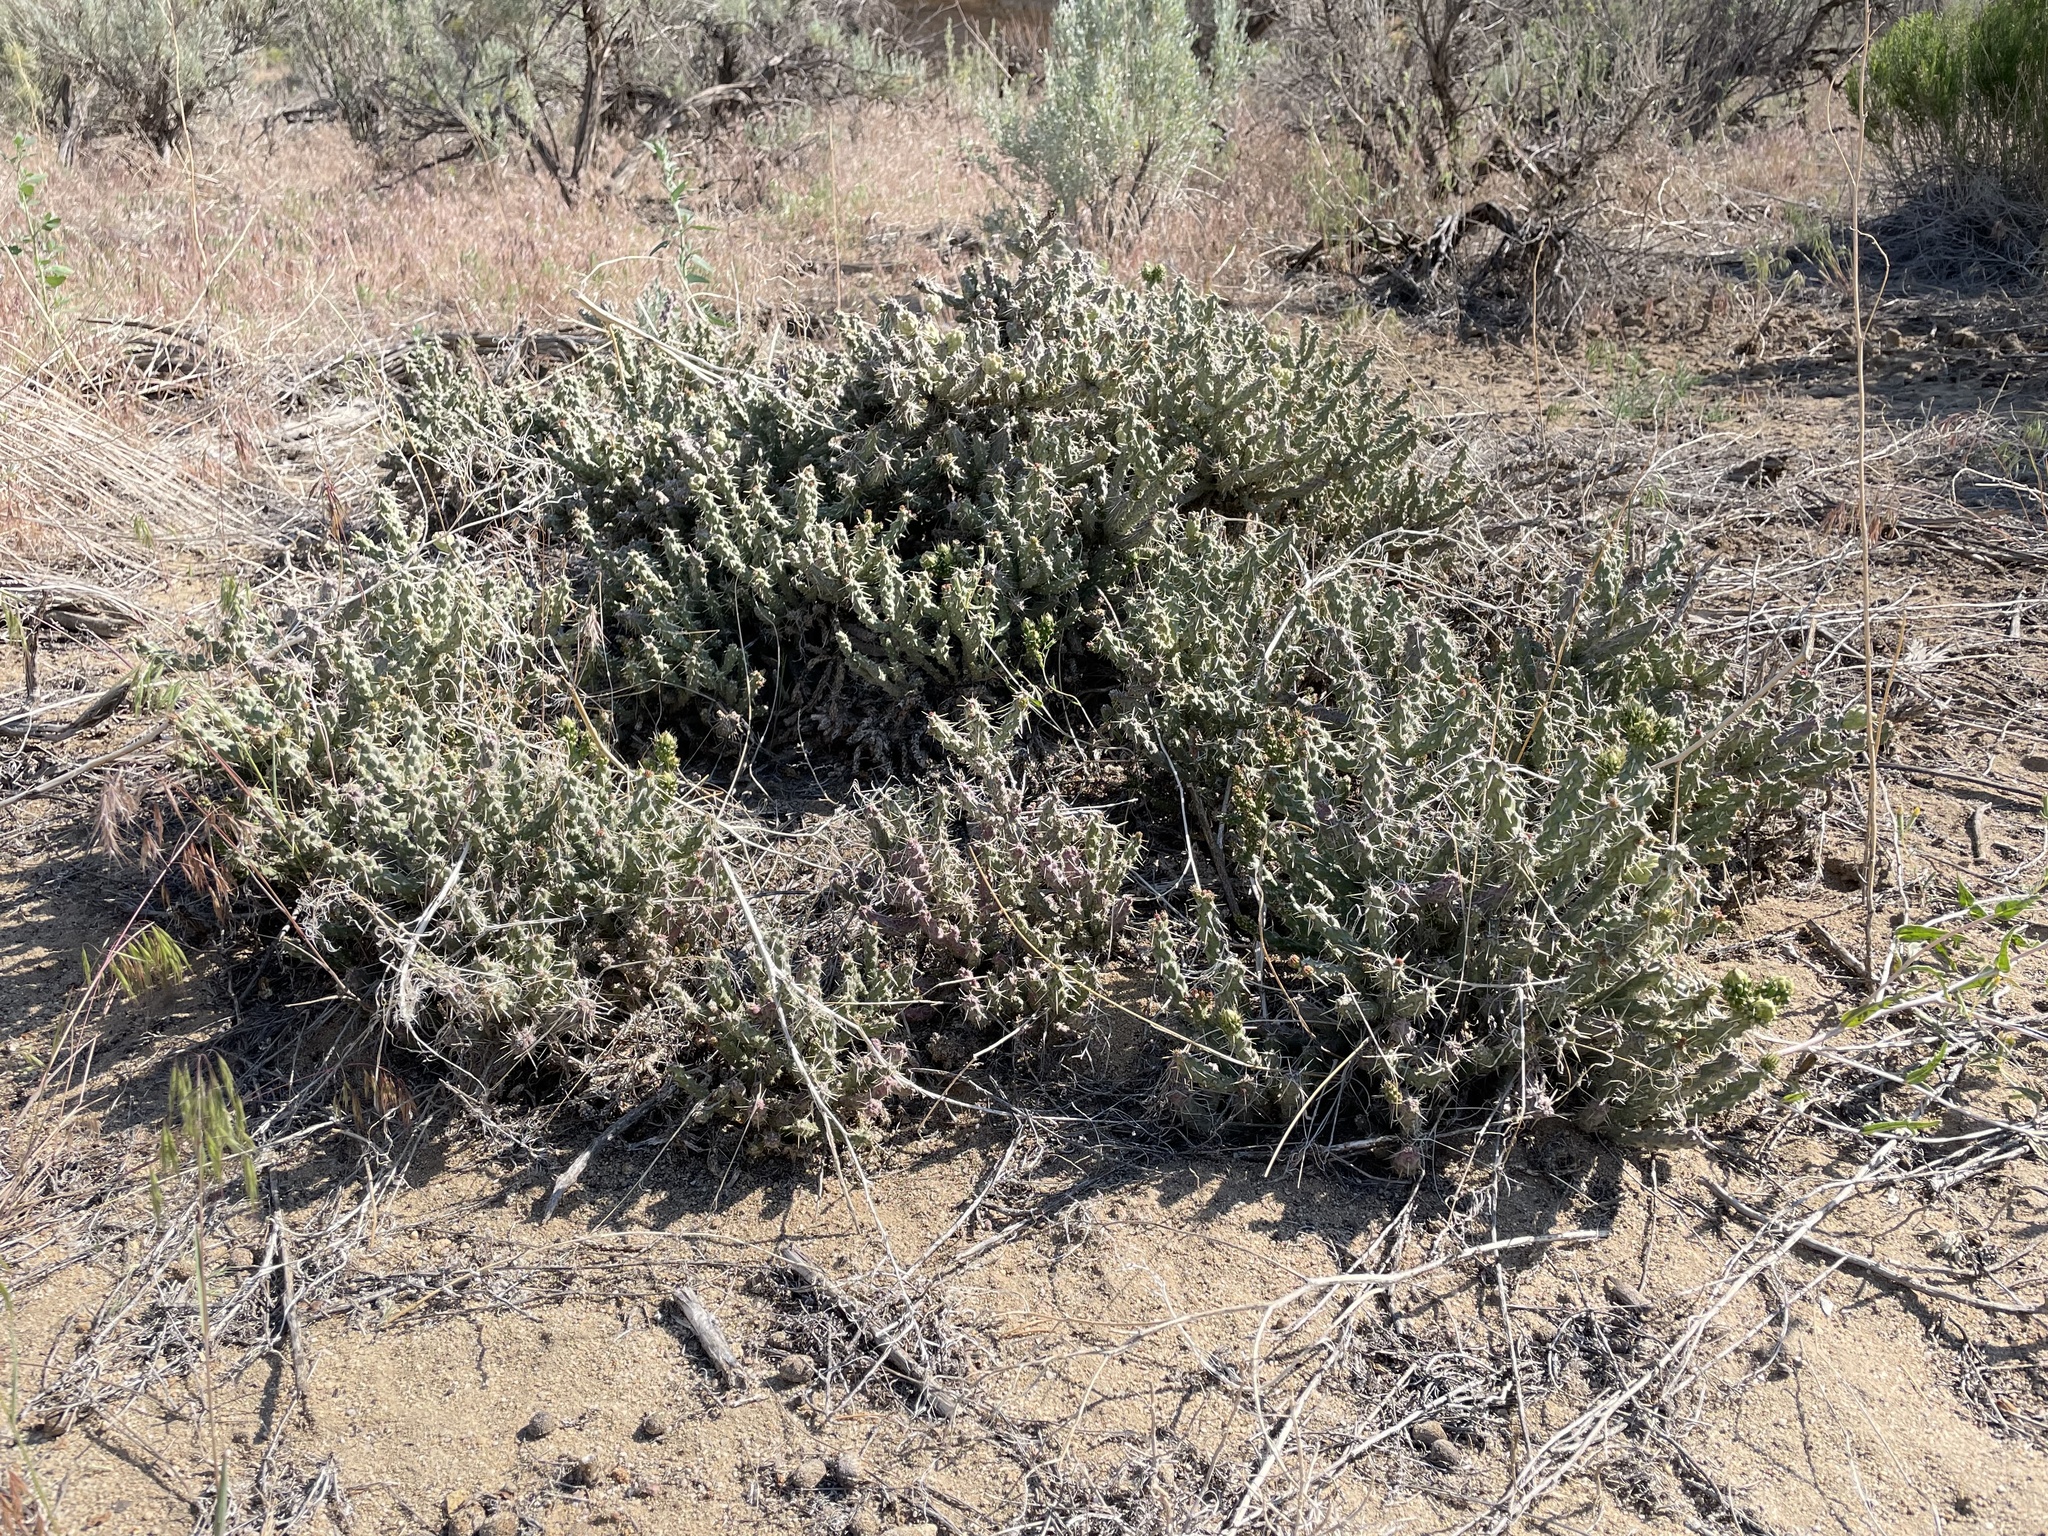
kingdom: Plantae
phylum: Tracheophyta
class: Magnoliopsida
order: Caryophyllales
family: Cactaceae
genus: Cylindropuntia
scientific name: Cylindropuntia whipplei
